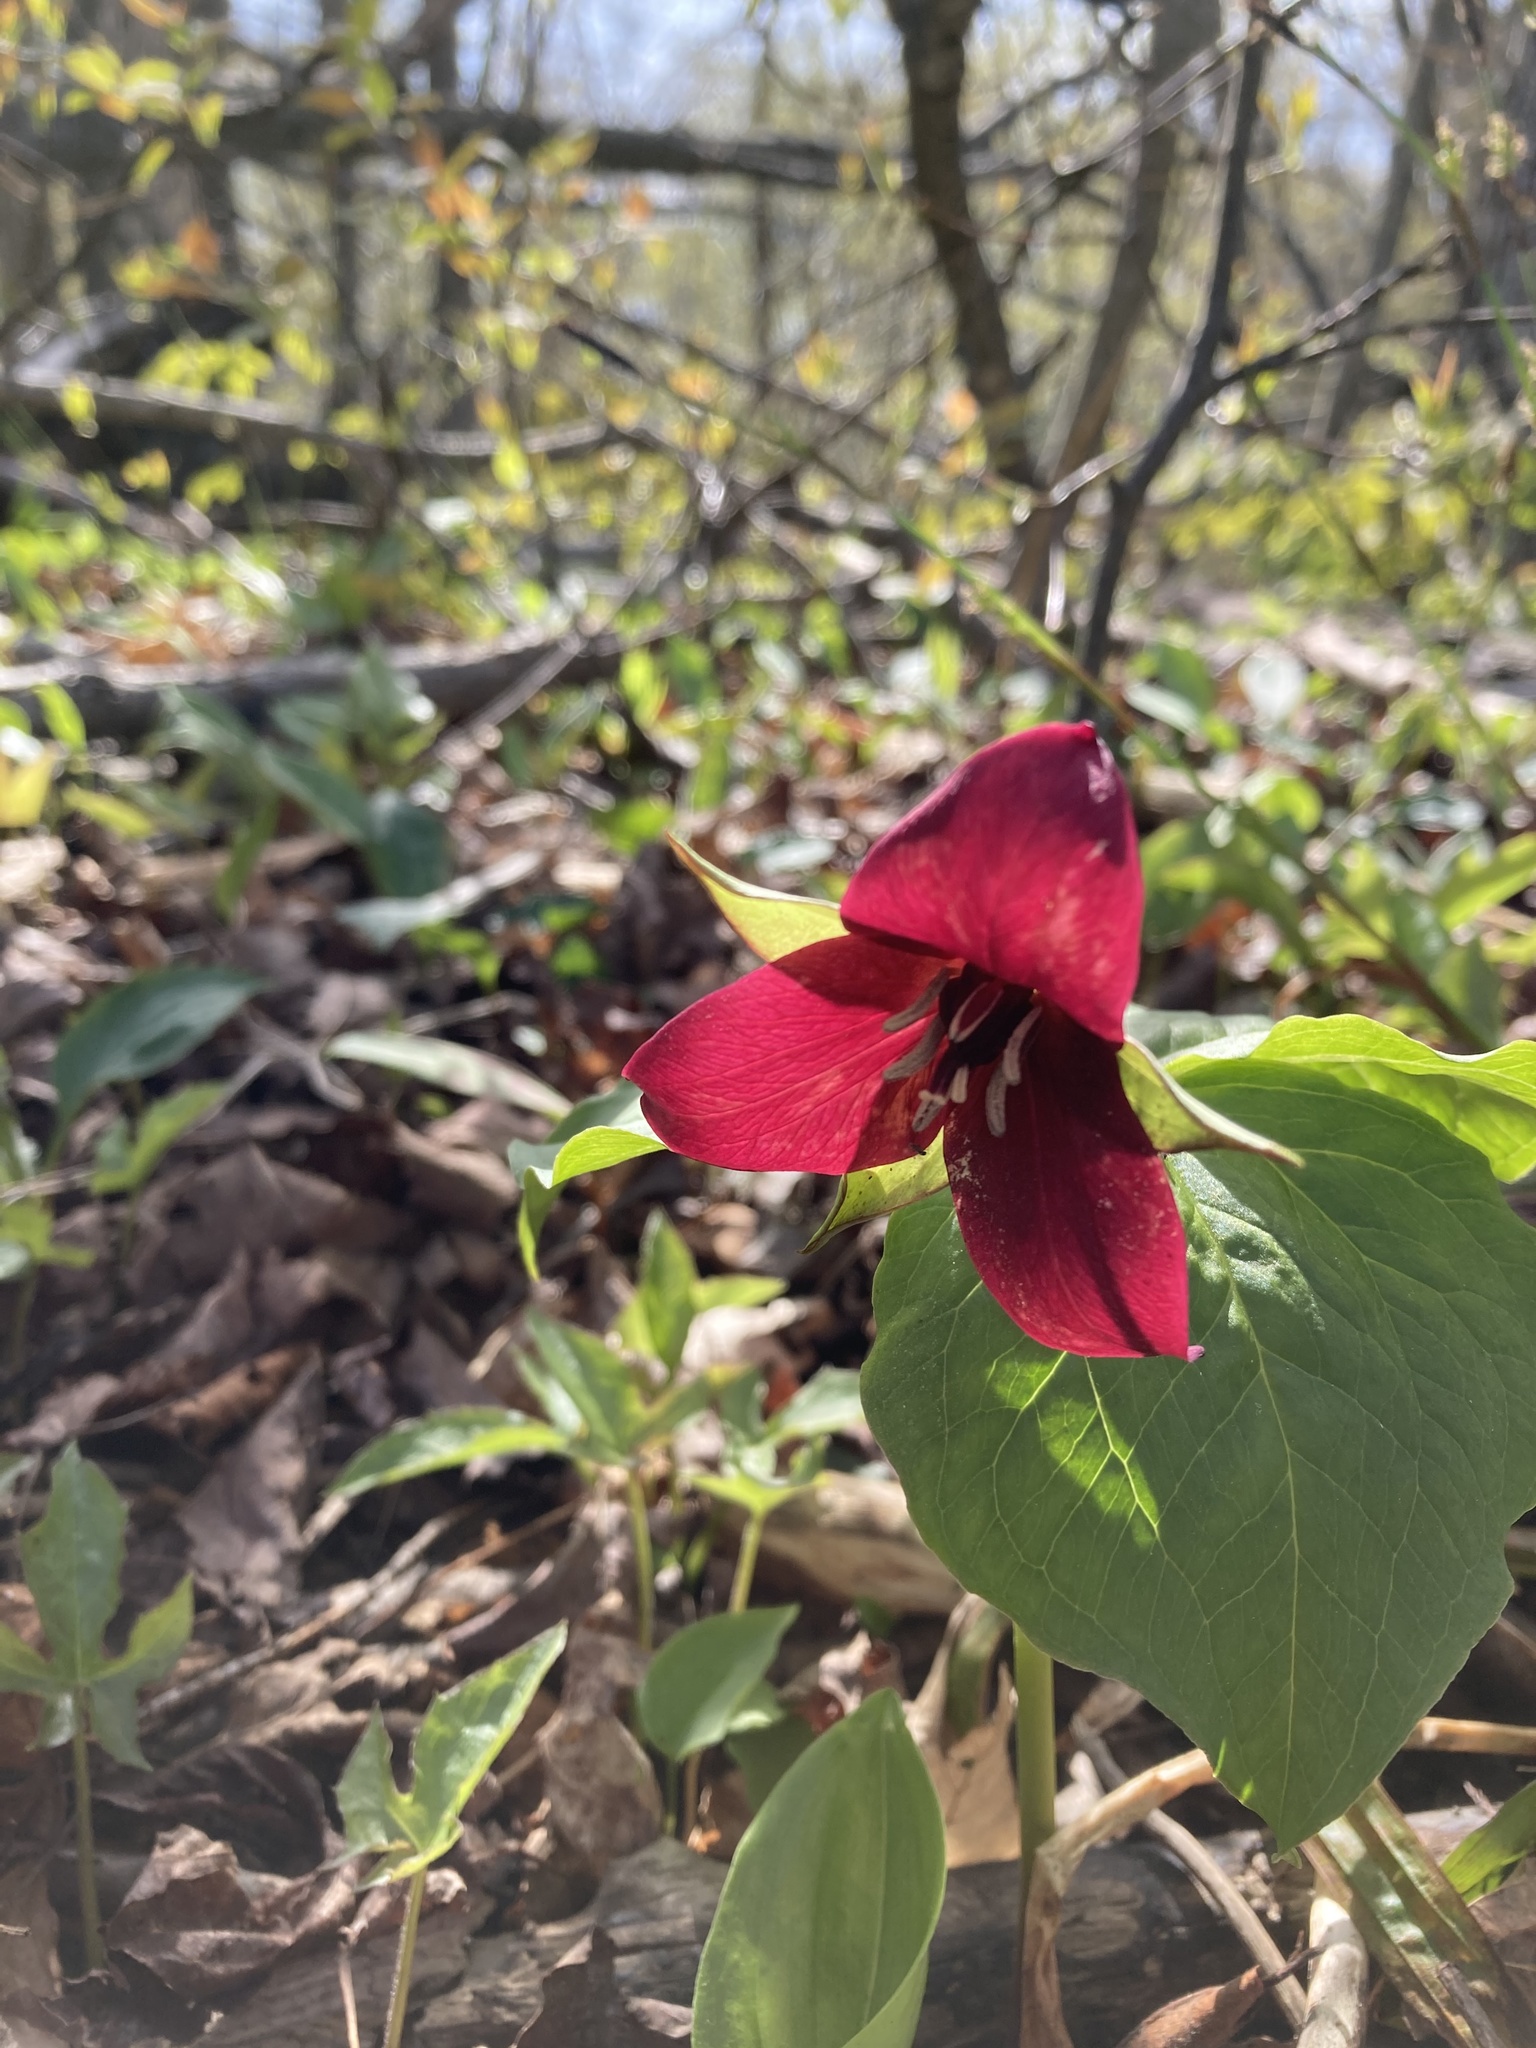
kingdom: Plantae
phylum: Tracheophyta
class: Liliopsida
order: Liliales
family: Melanthiaceae
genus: Trillium
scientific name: Trillium erectum
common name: Purple trillium
